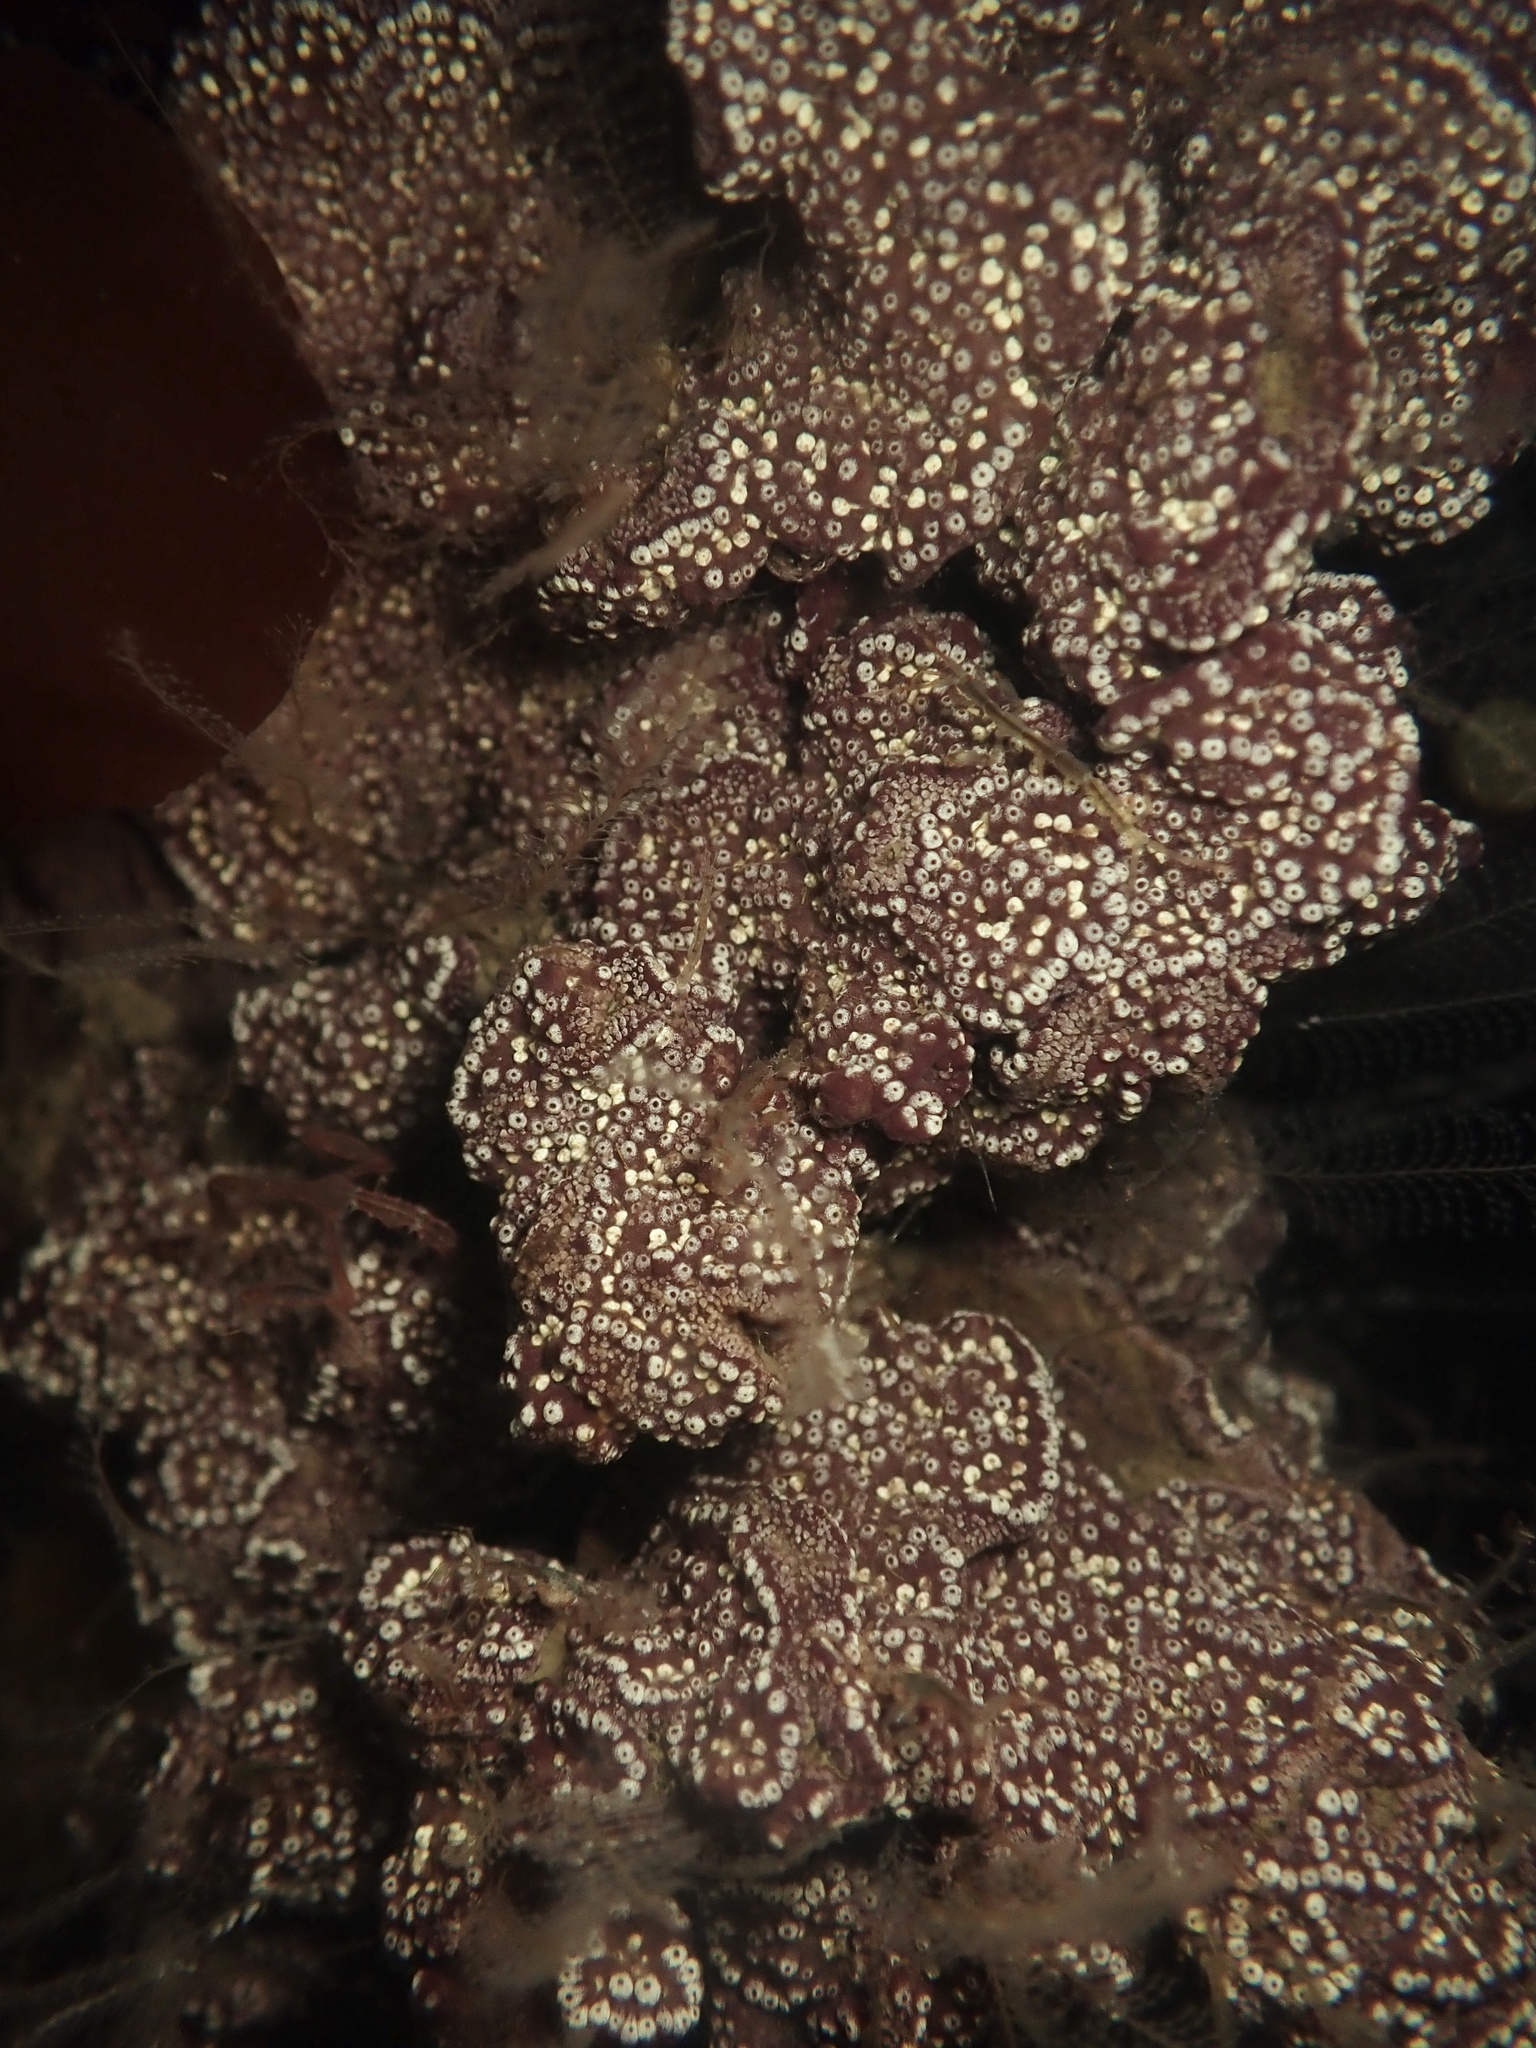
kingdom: Animalia
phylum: Chordata
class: Ascidiacea
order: Stolidobranchia
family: Styelidae
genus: Botrylloides
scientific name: Botrylloides diegensis
